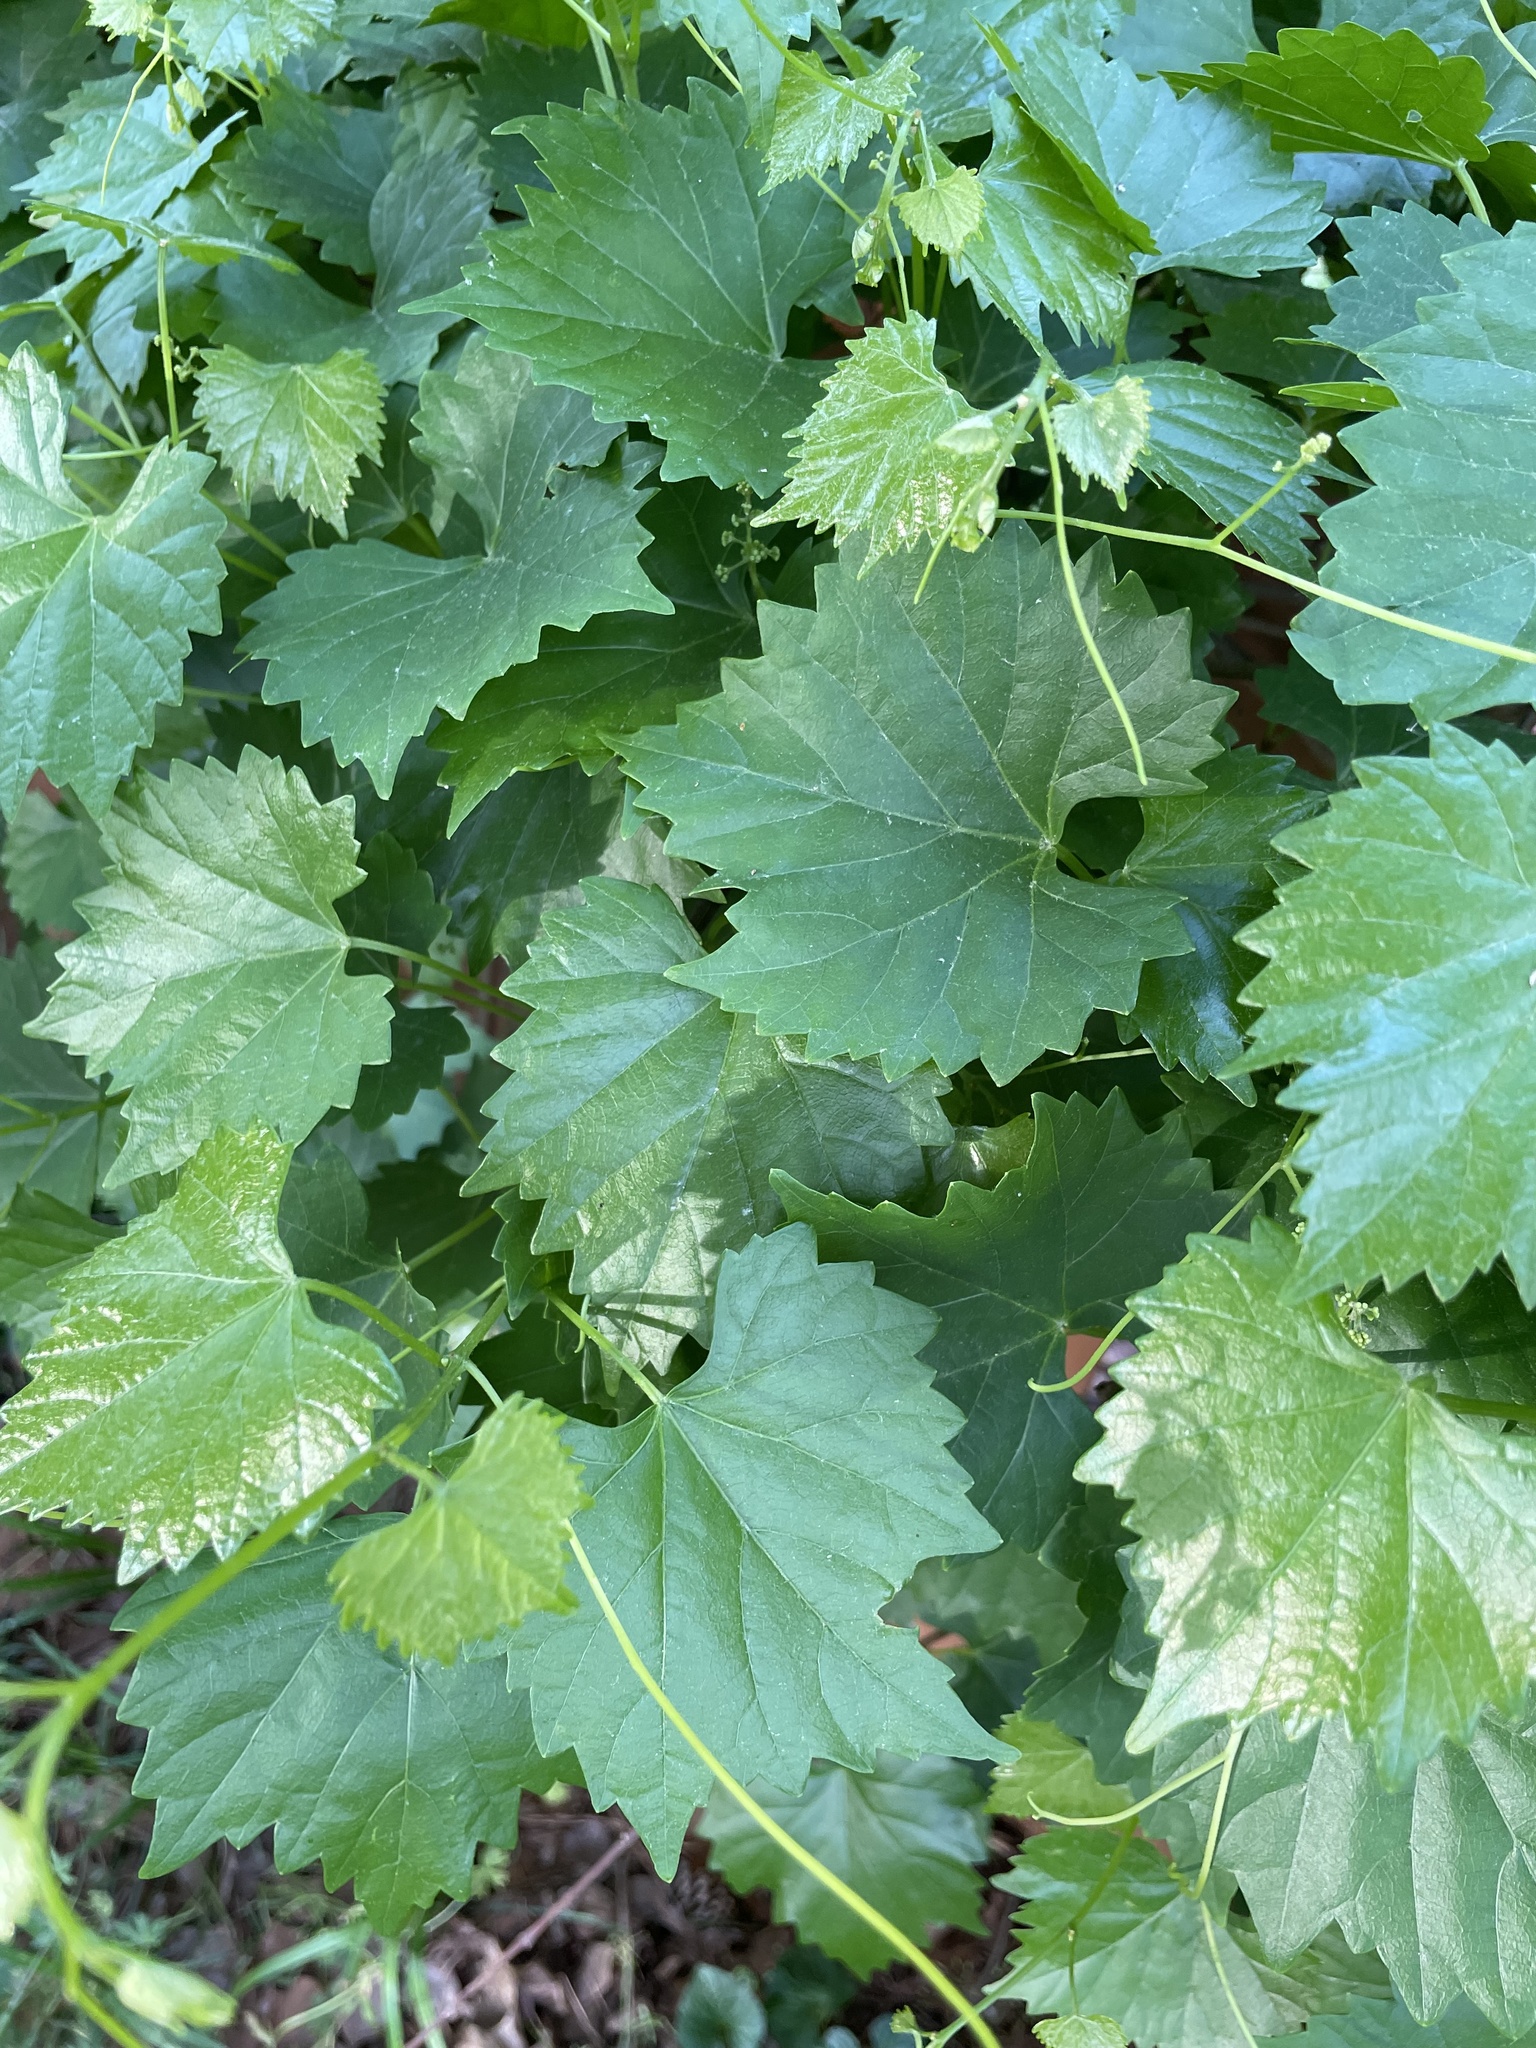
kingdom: Plantae
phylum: Tracheophyta
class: Magnoliopsida
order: Vitales
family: Vitaceae
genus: Vitis
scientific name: Vitis rotundifolia
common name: Muscadine grape
